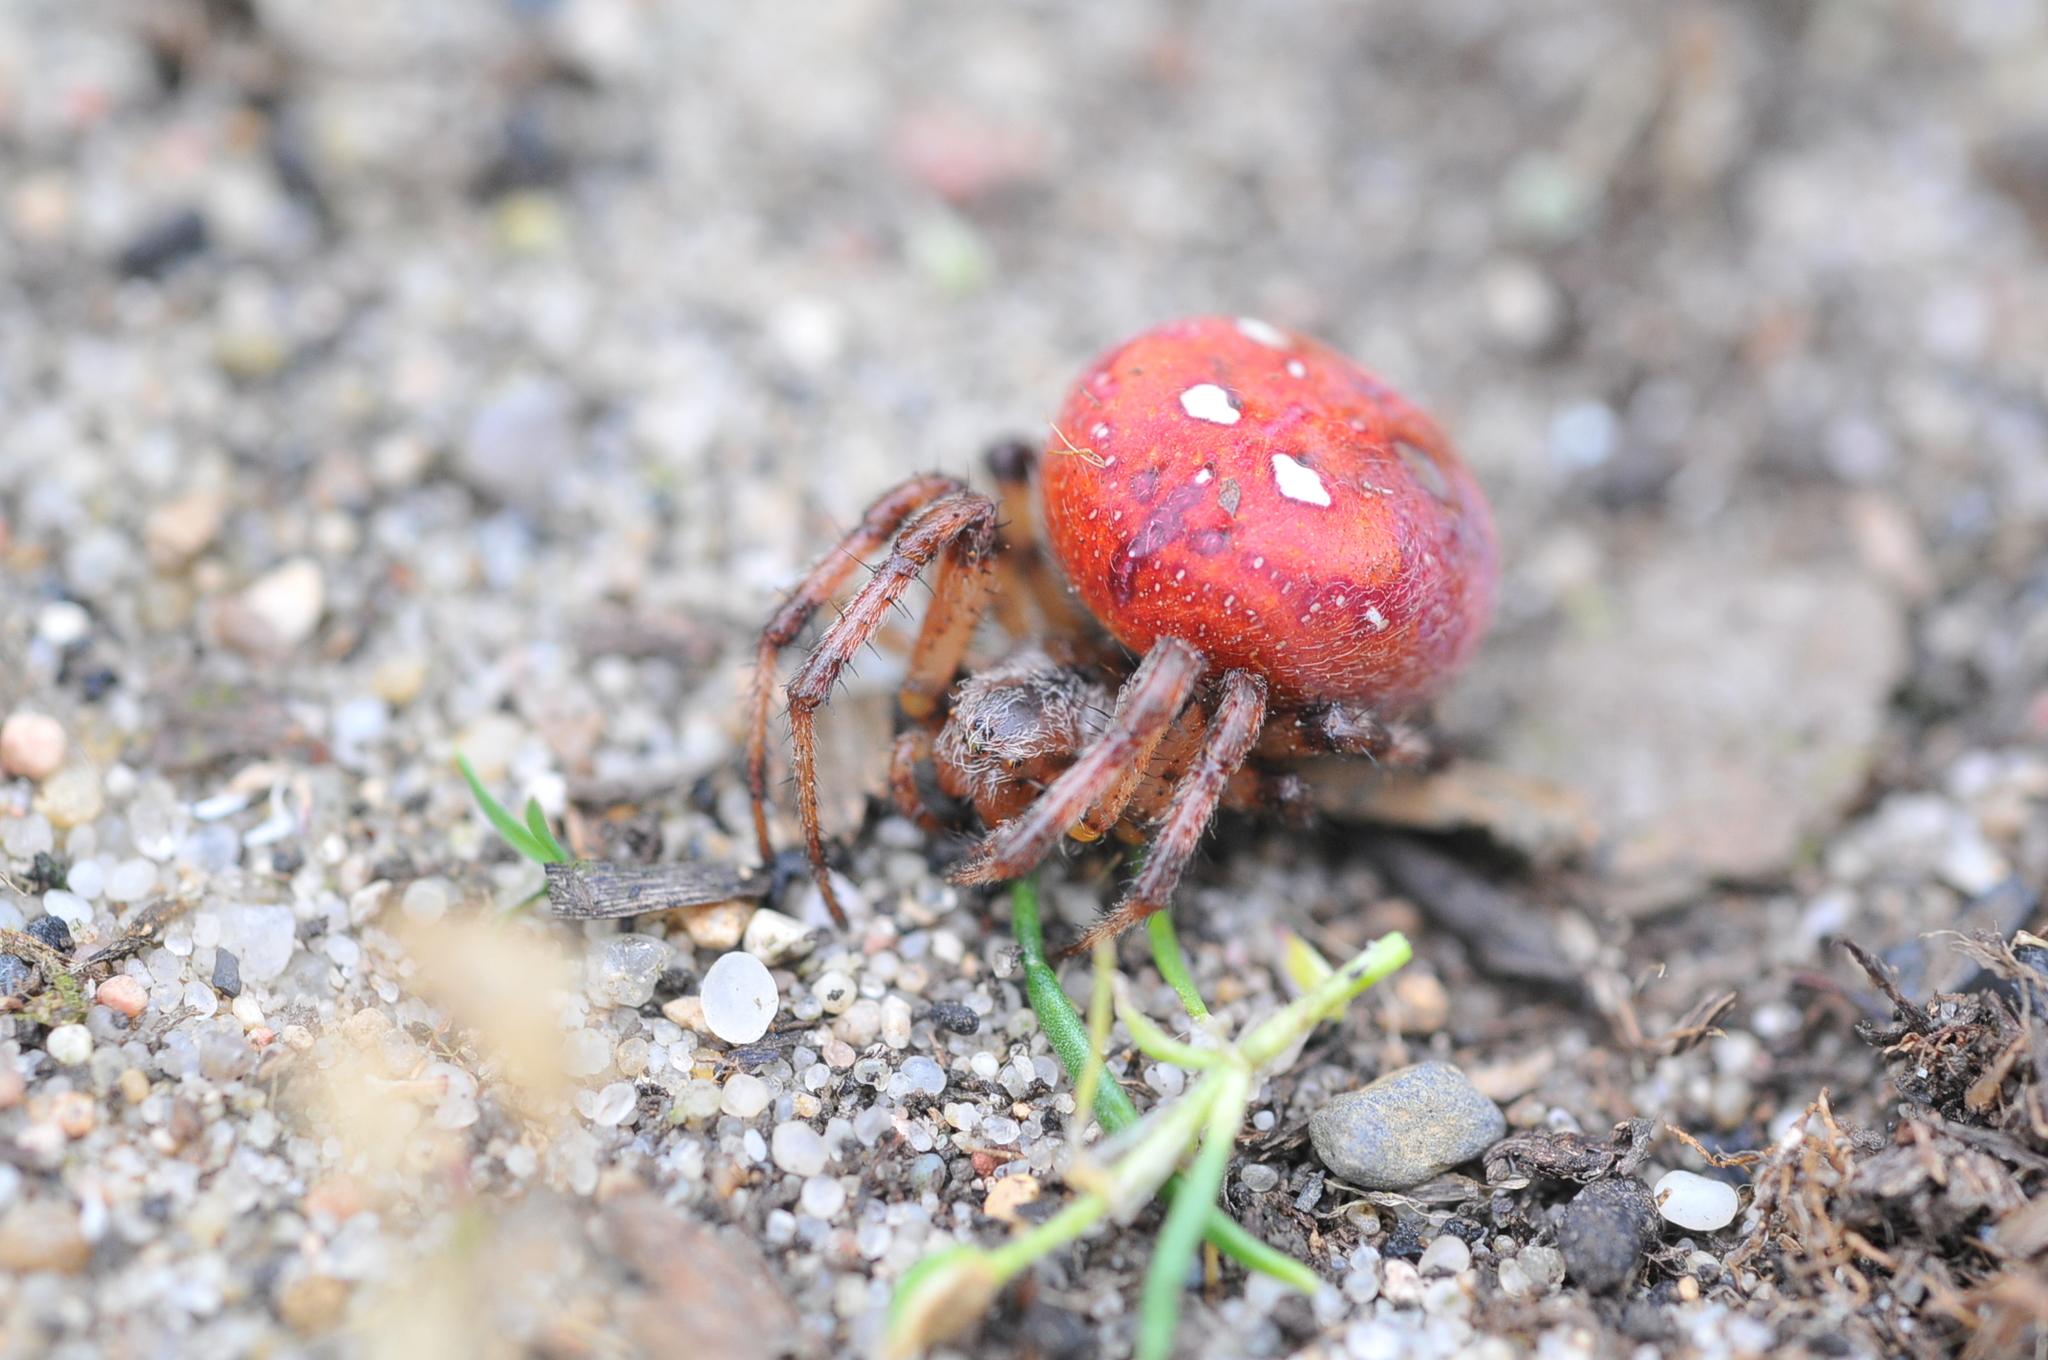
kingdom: Animalia
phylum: Arthropoda
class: Arachnida
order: Araneae
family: Araneidae
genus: Araneus
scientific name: Araneus quadratus
